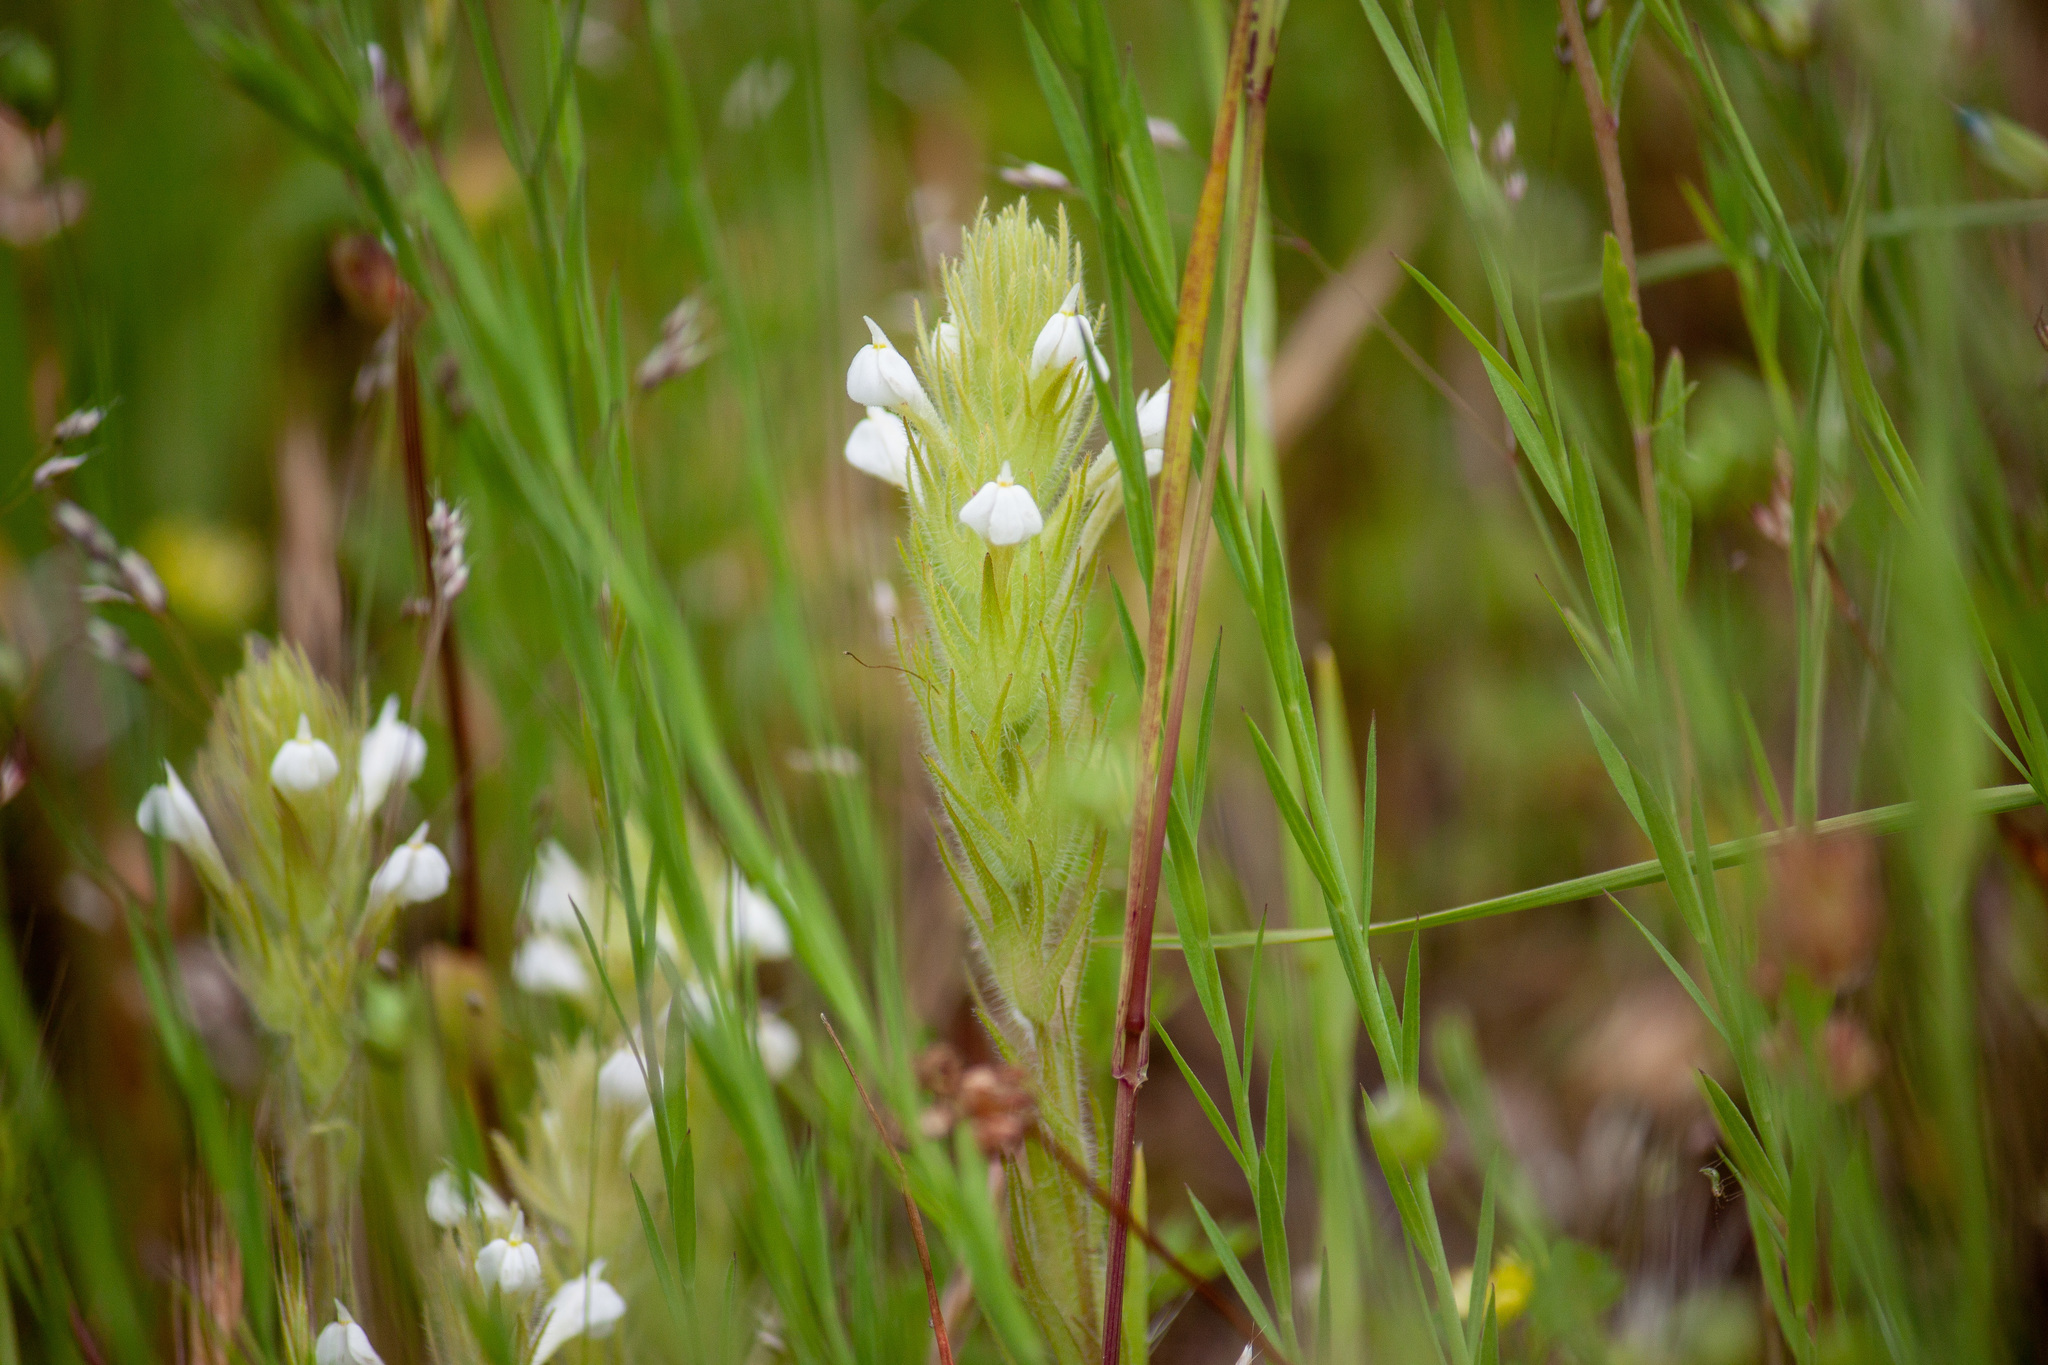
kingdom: Plantae
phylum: Tracheophyta
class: Magnoliopsida
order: Lamiales
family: Orobanchaceae
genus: Castilleja
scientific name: Castilleja tenuis
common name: Hairy indian paintbrush
